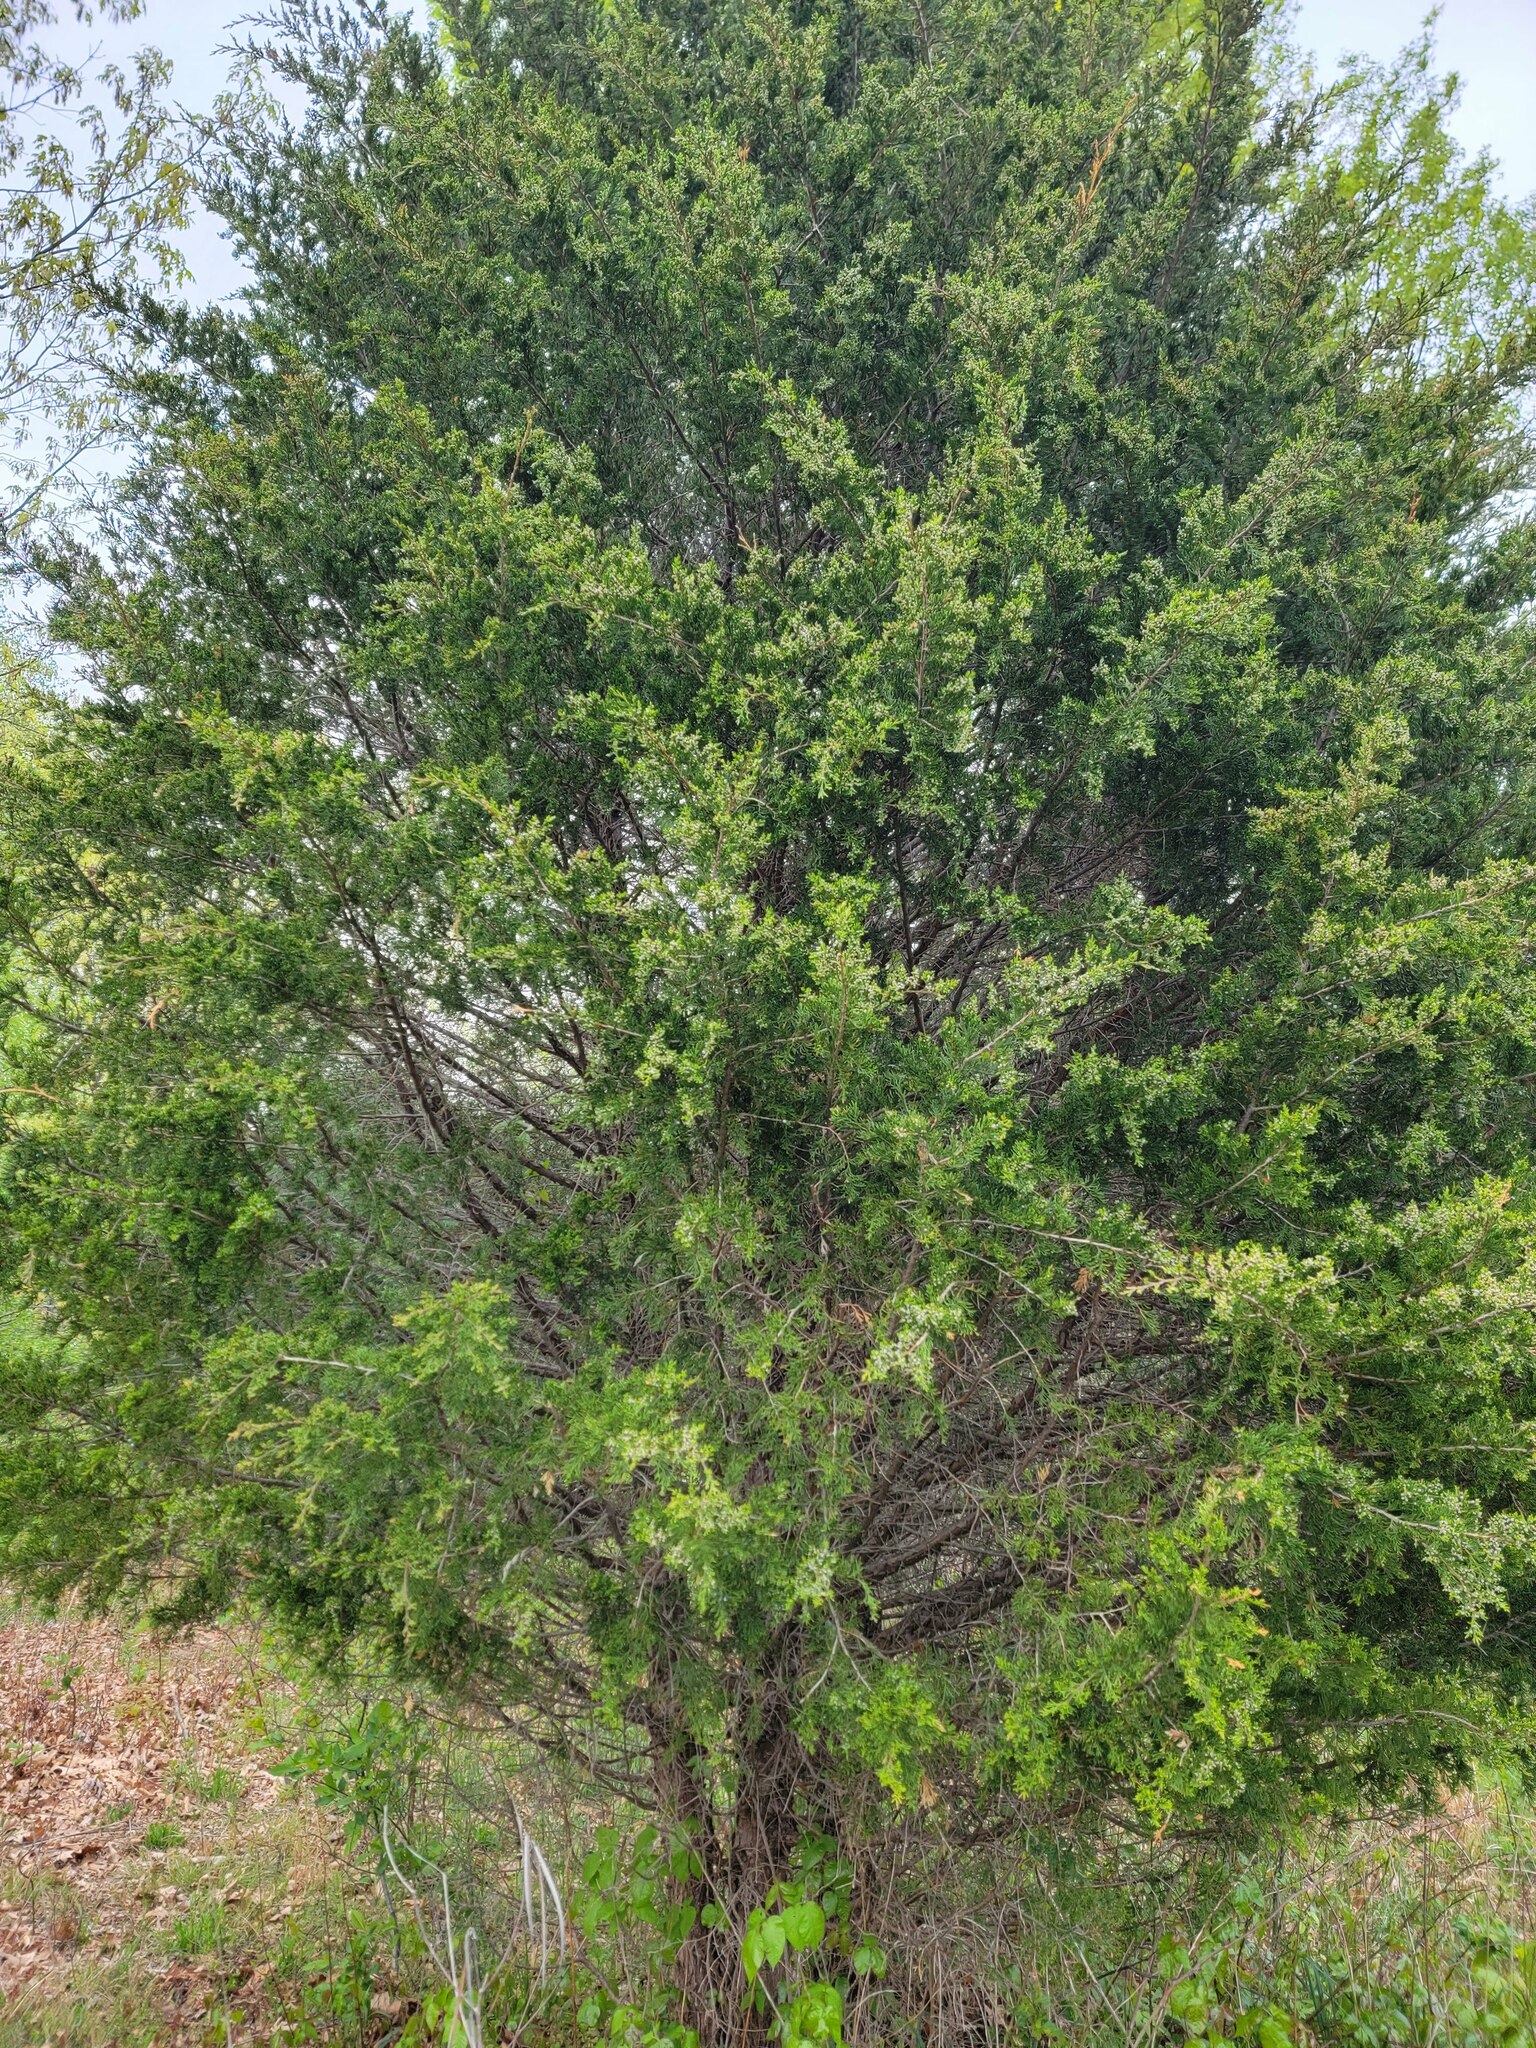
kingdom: Plantae
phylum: Tracheophyta
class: Pinopsida
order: Pinales
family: Cupressaceae
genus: Juniperus
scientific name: Juniperus virginiana
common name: Red juniper
